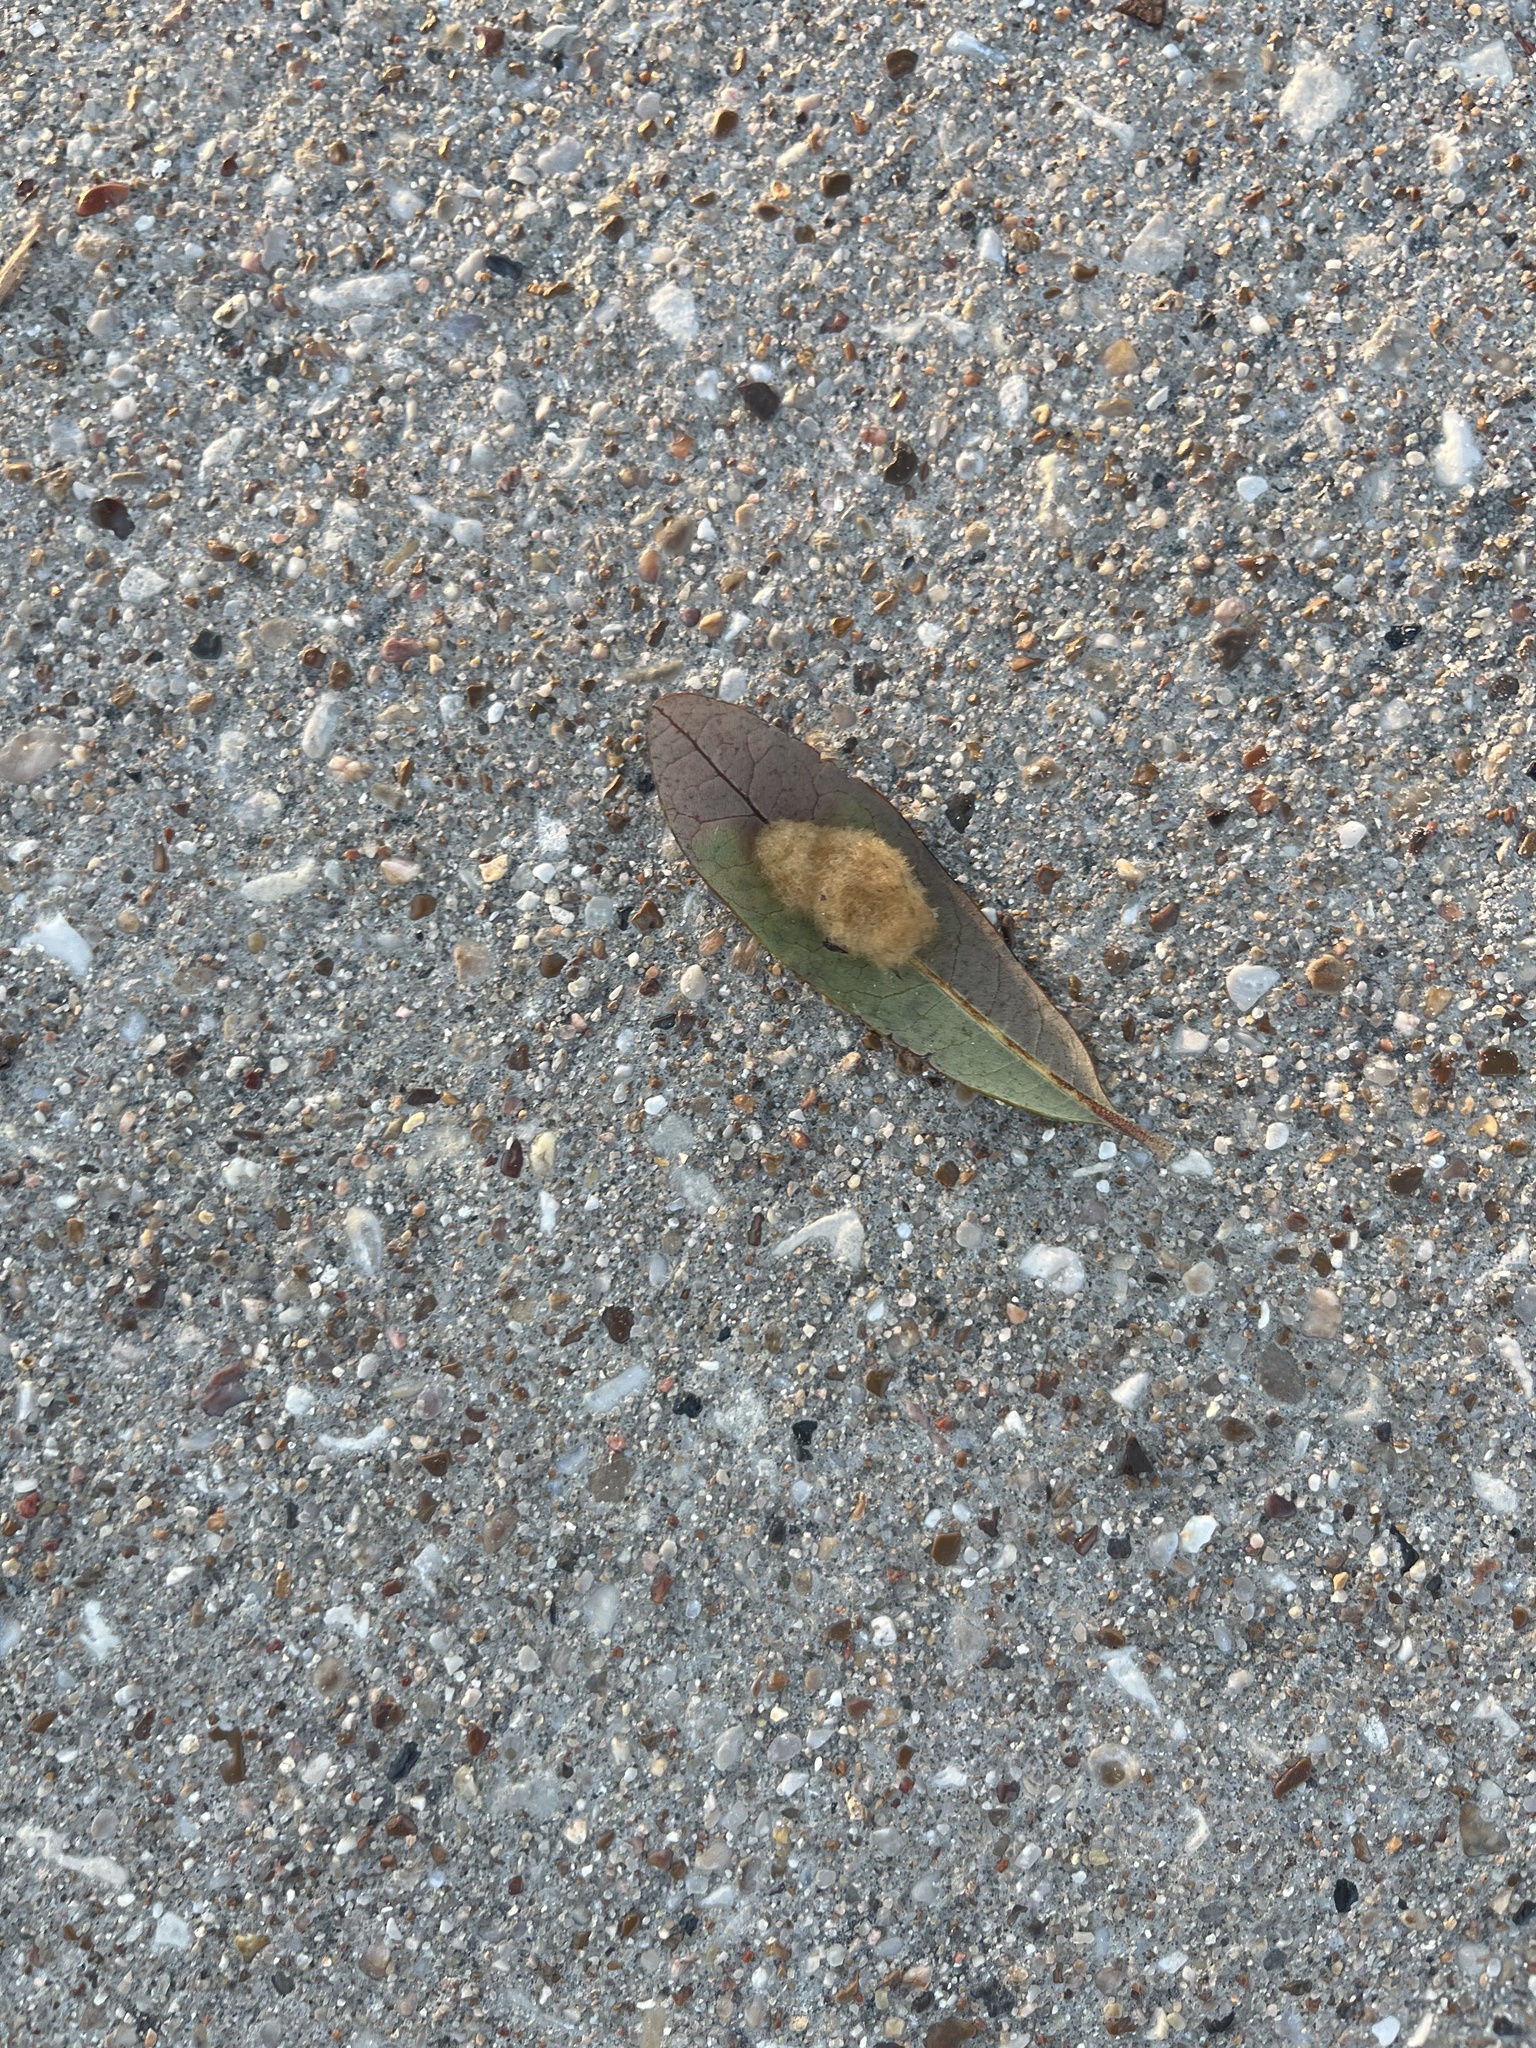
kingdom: Animalia
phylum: Arthropoda
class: Insecta
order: Hymenoptera
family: Cynipidae
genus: Andricus
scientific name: Andricus Druon quercuslanigerum
